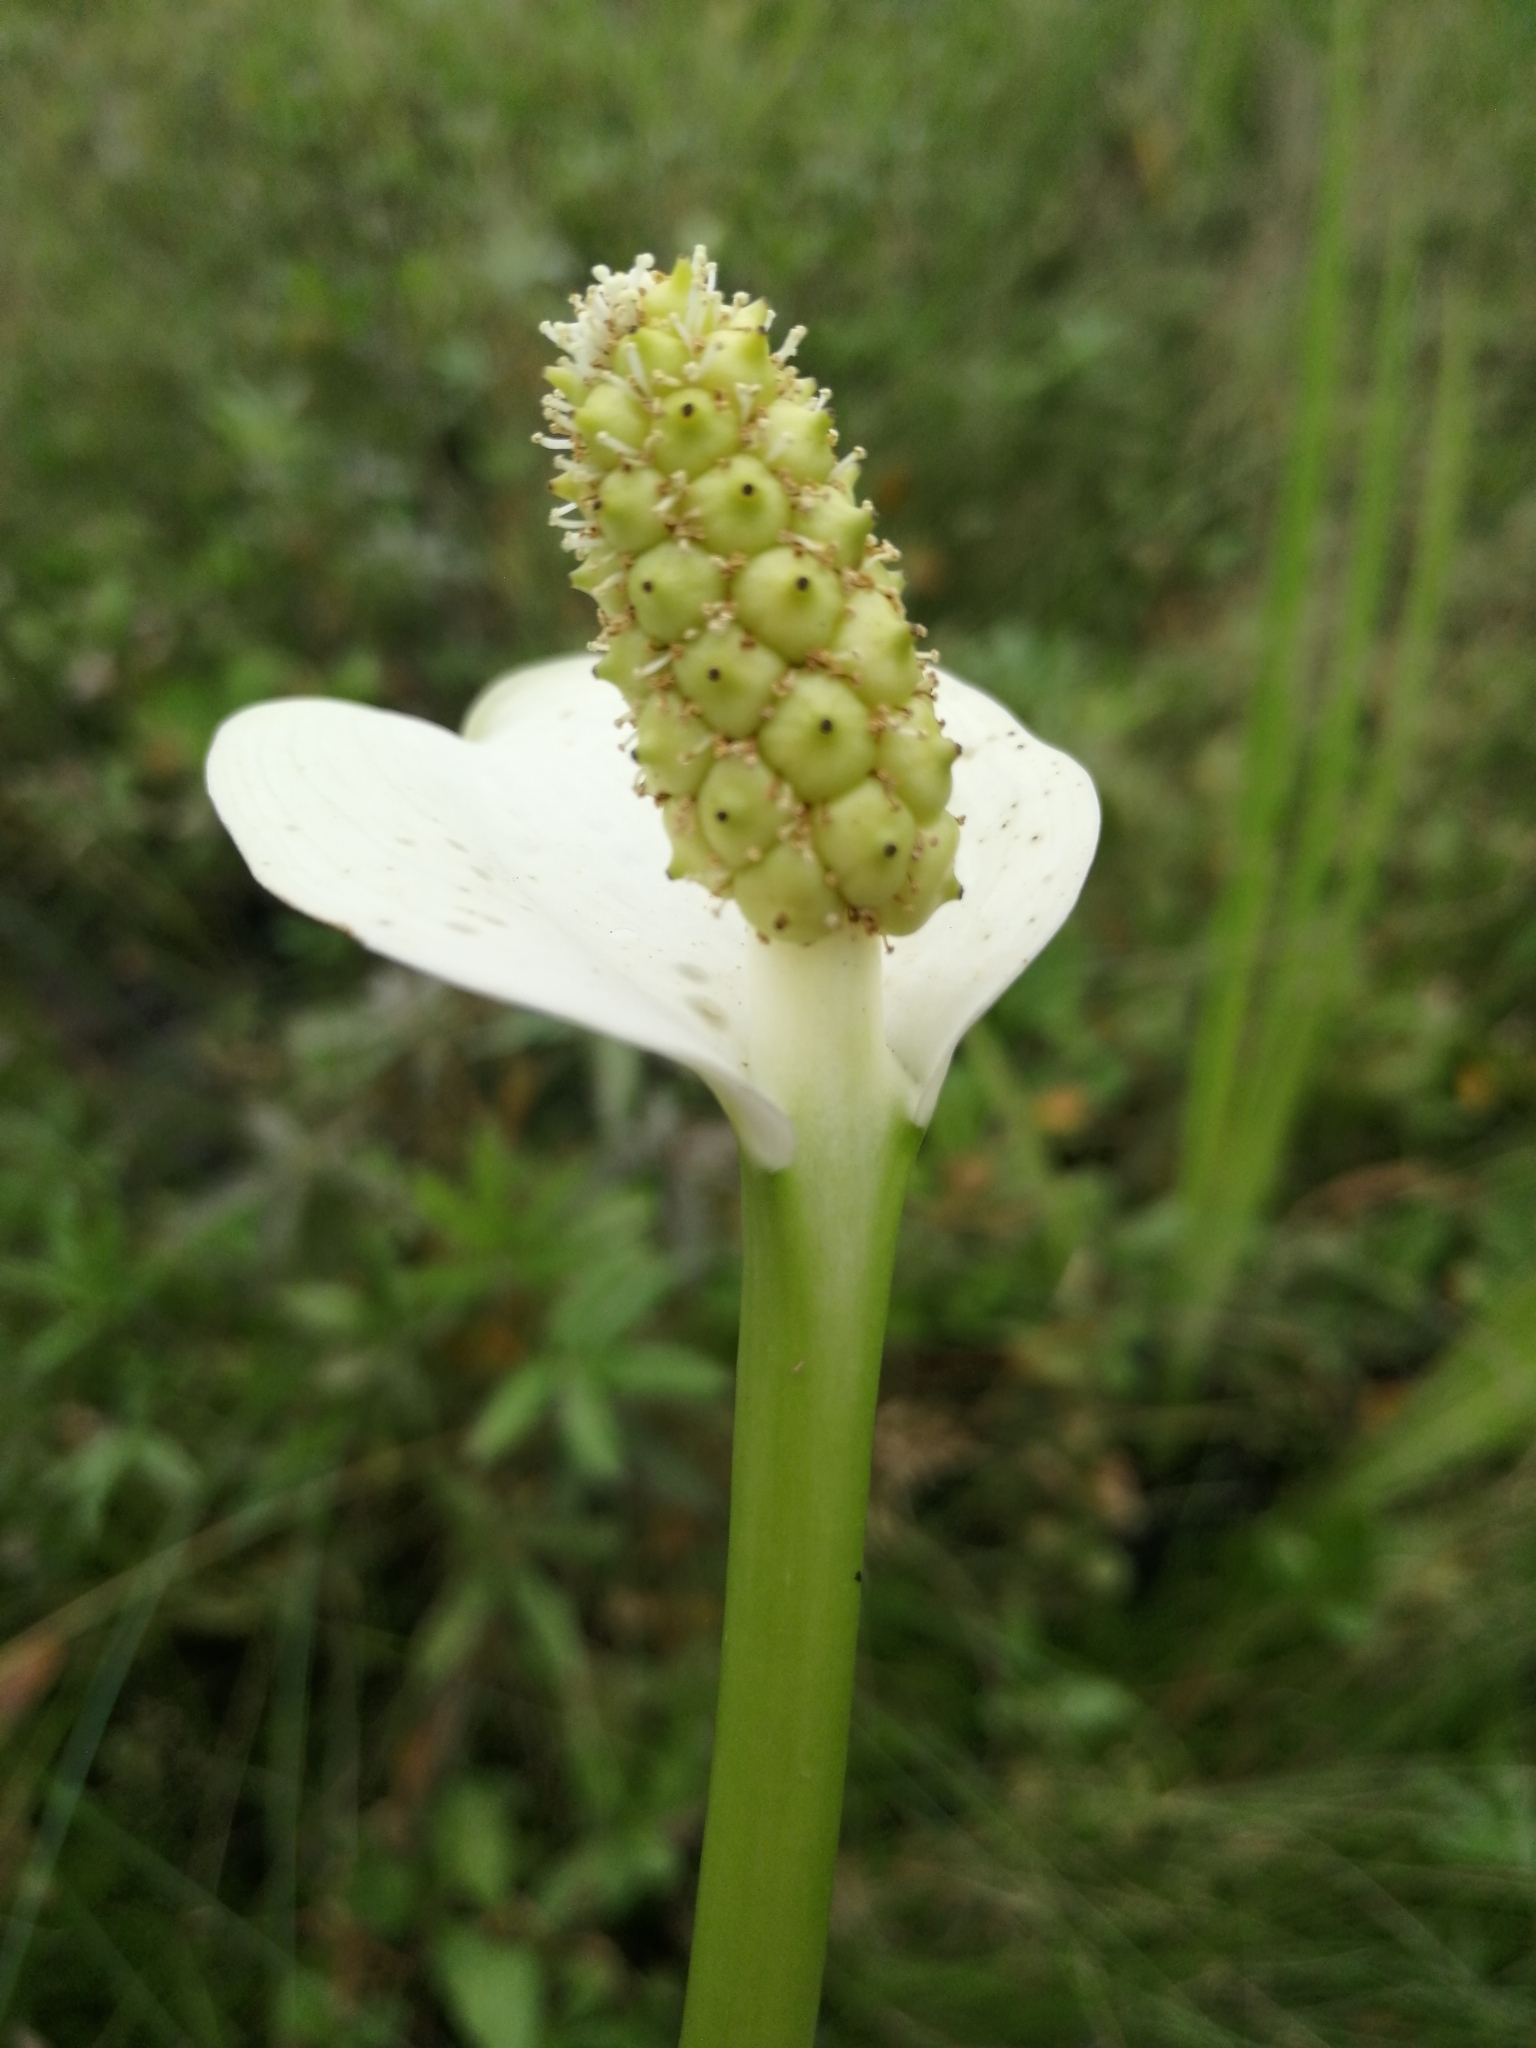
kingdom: Plantae
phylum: Tracheophyta
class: Liliopsida
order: Alismatales
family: Araceae
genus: Calla
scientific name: Calla palustris
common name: Bog arum
